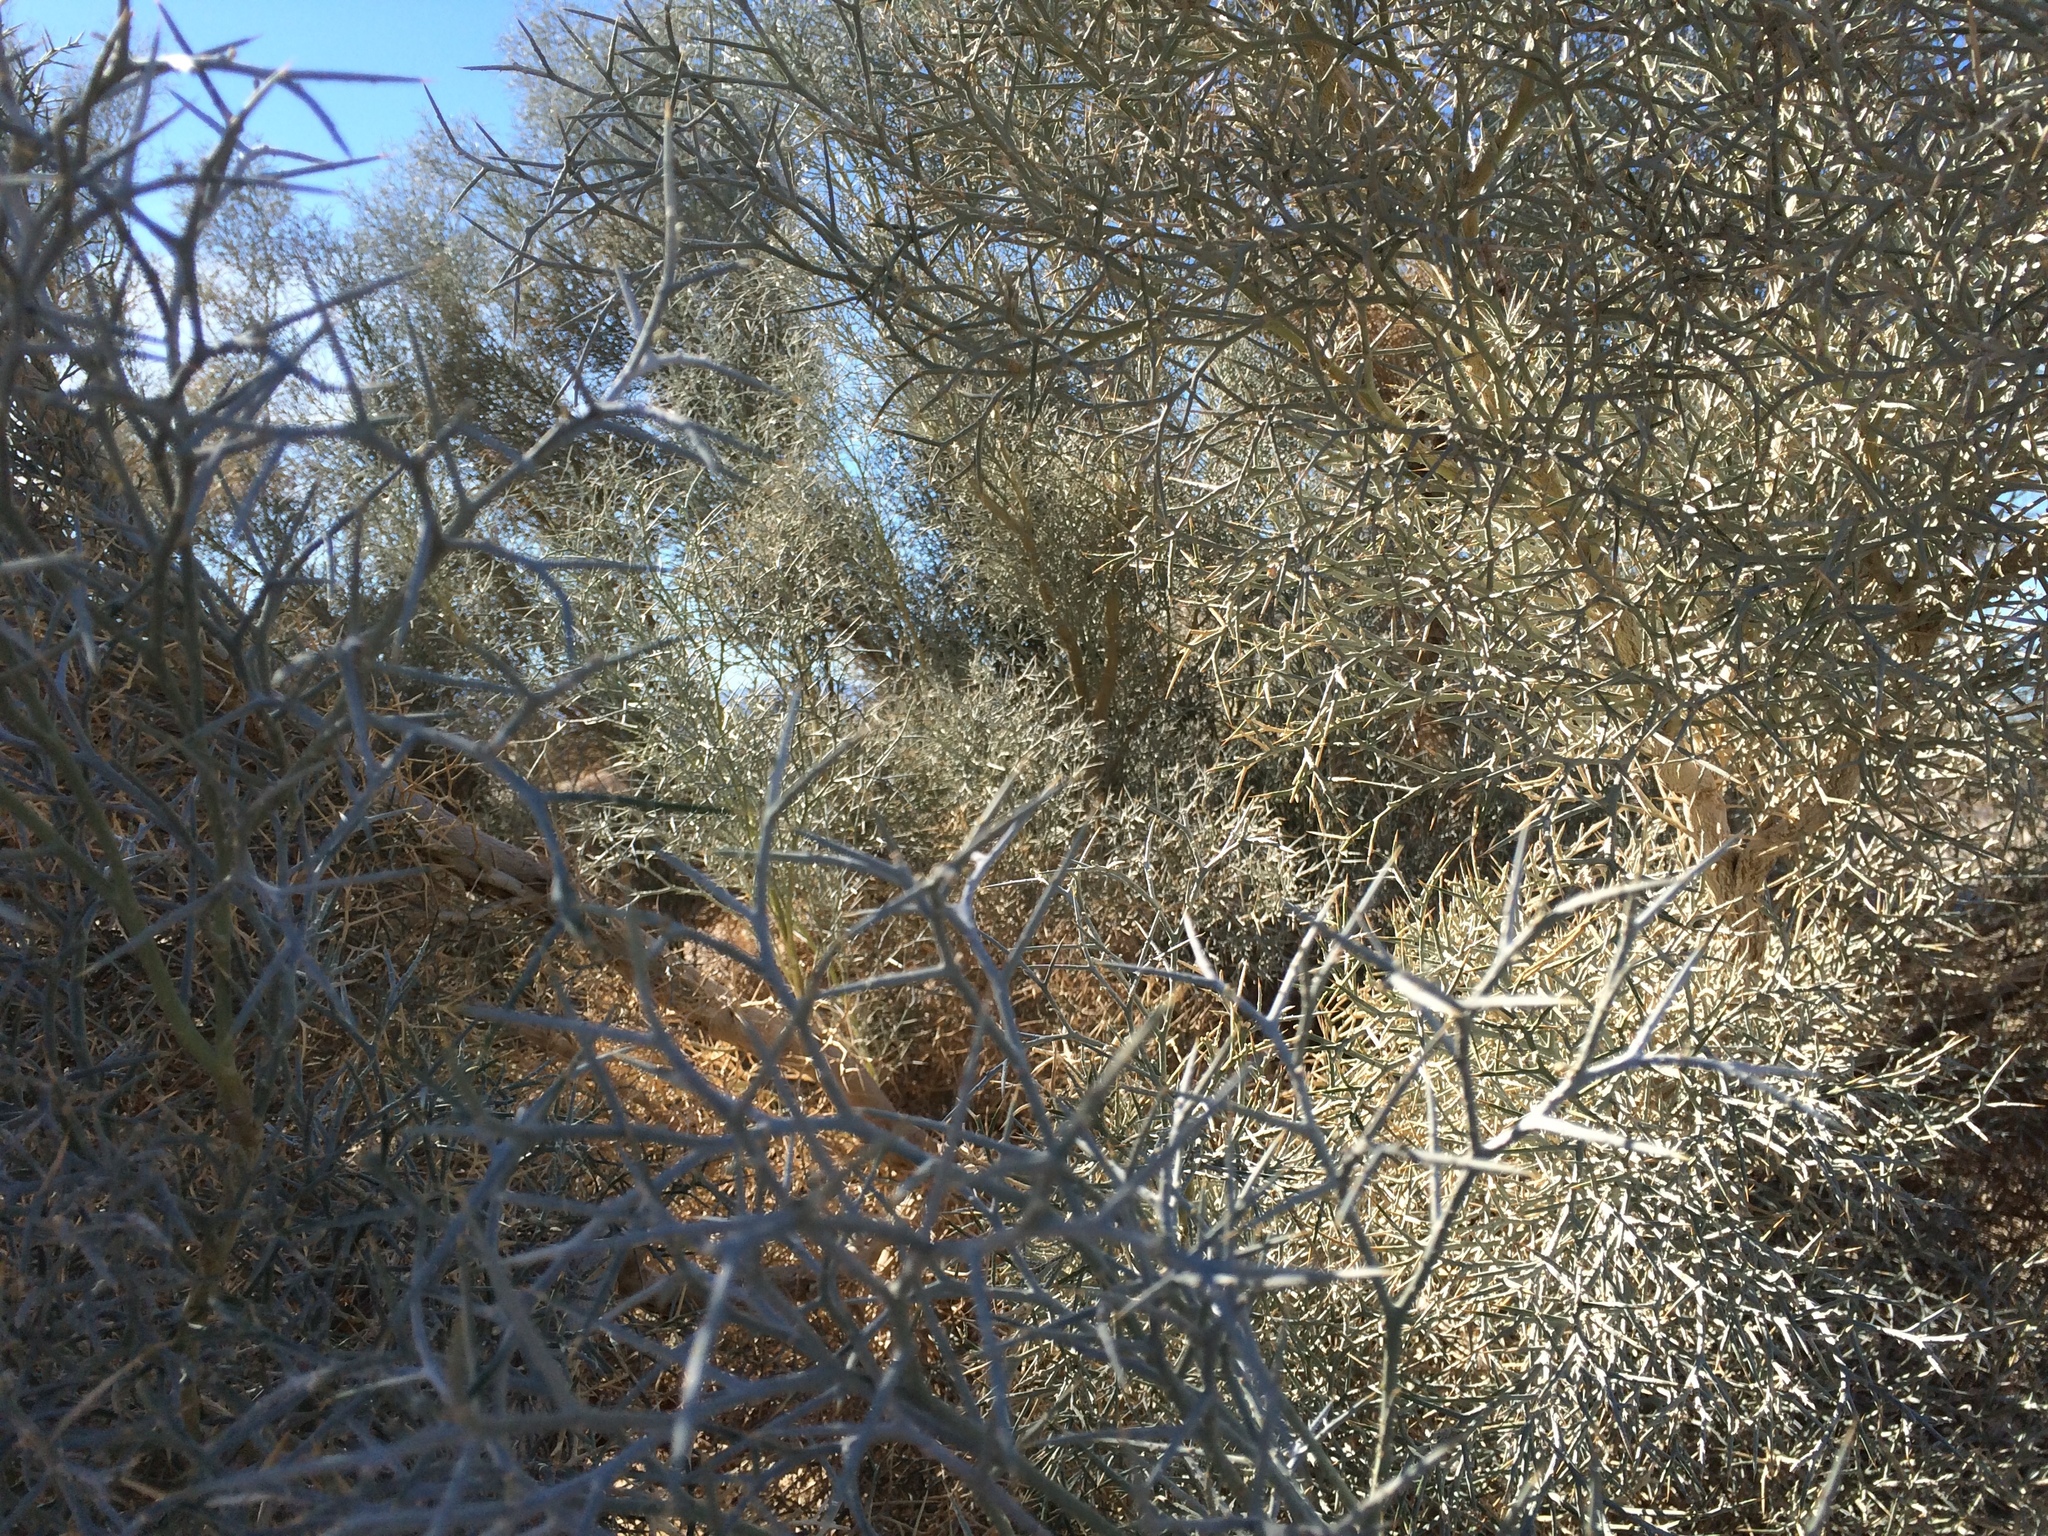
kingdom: Plantae
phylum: Tracheophyta
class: Magnoliopsida
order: Fabales
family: Fabaceae
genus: Psorothamnus
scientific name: Psorothamnus spinosus
